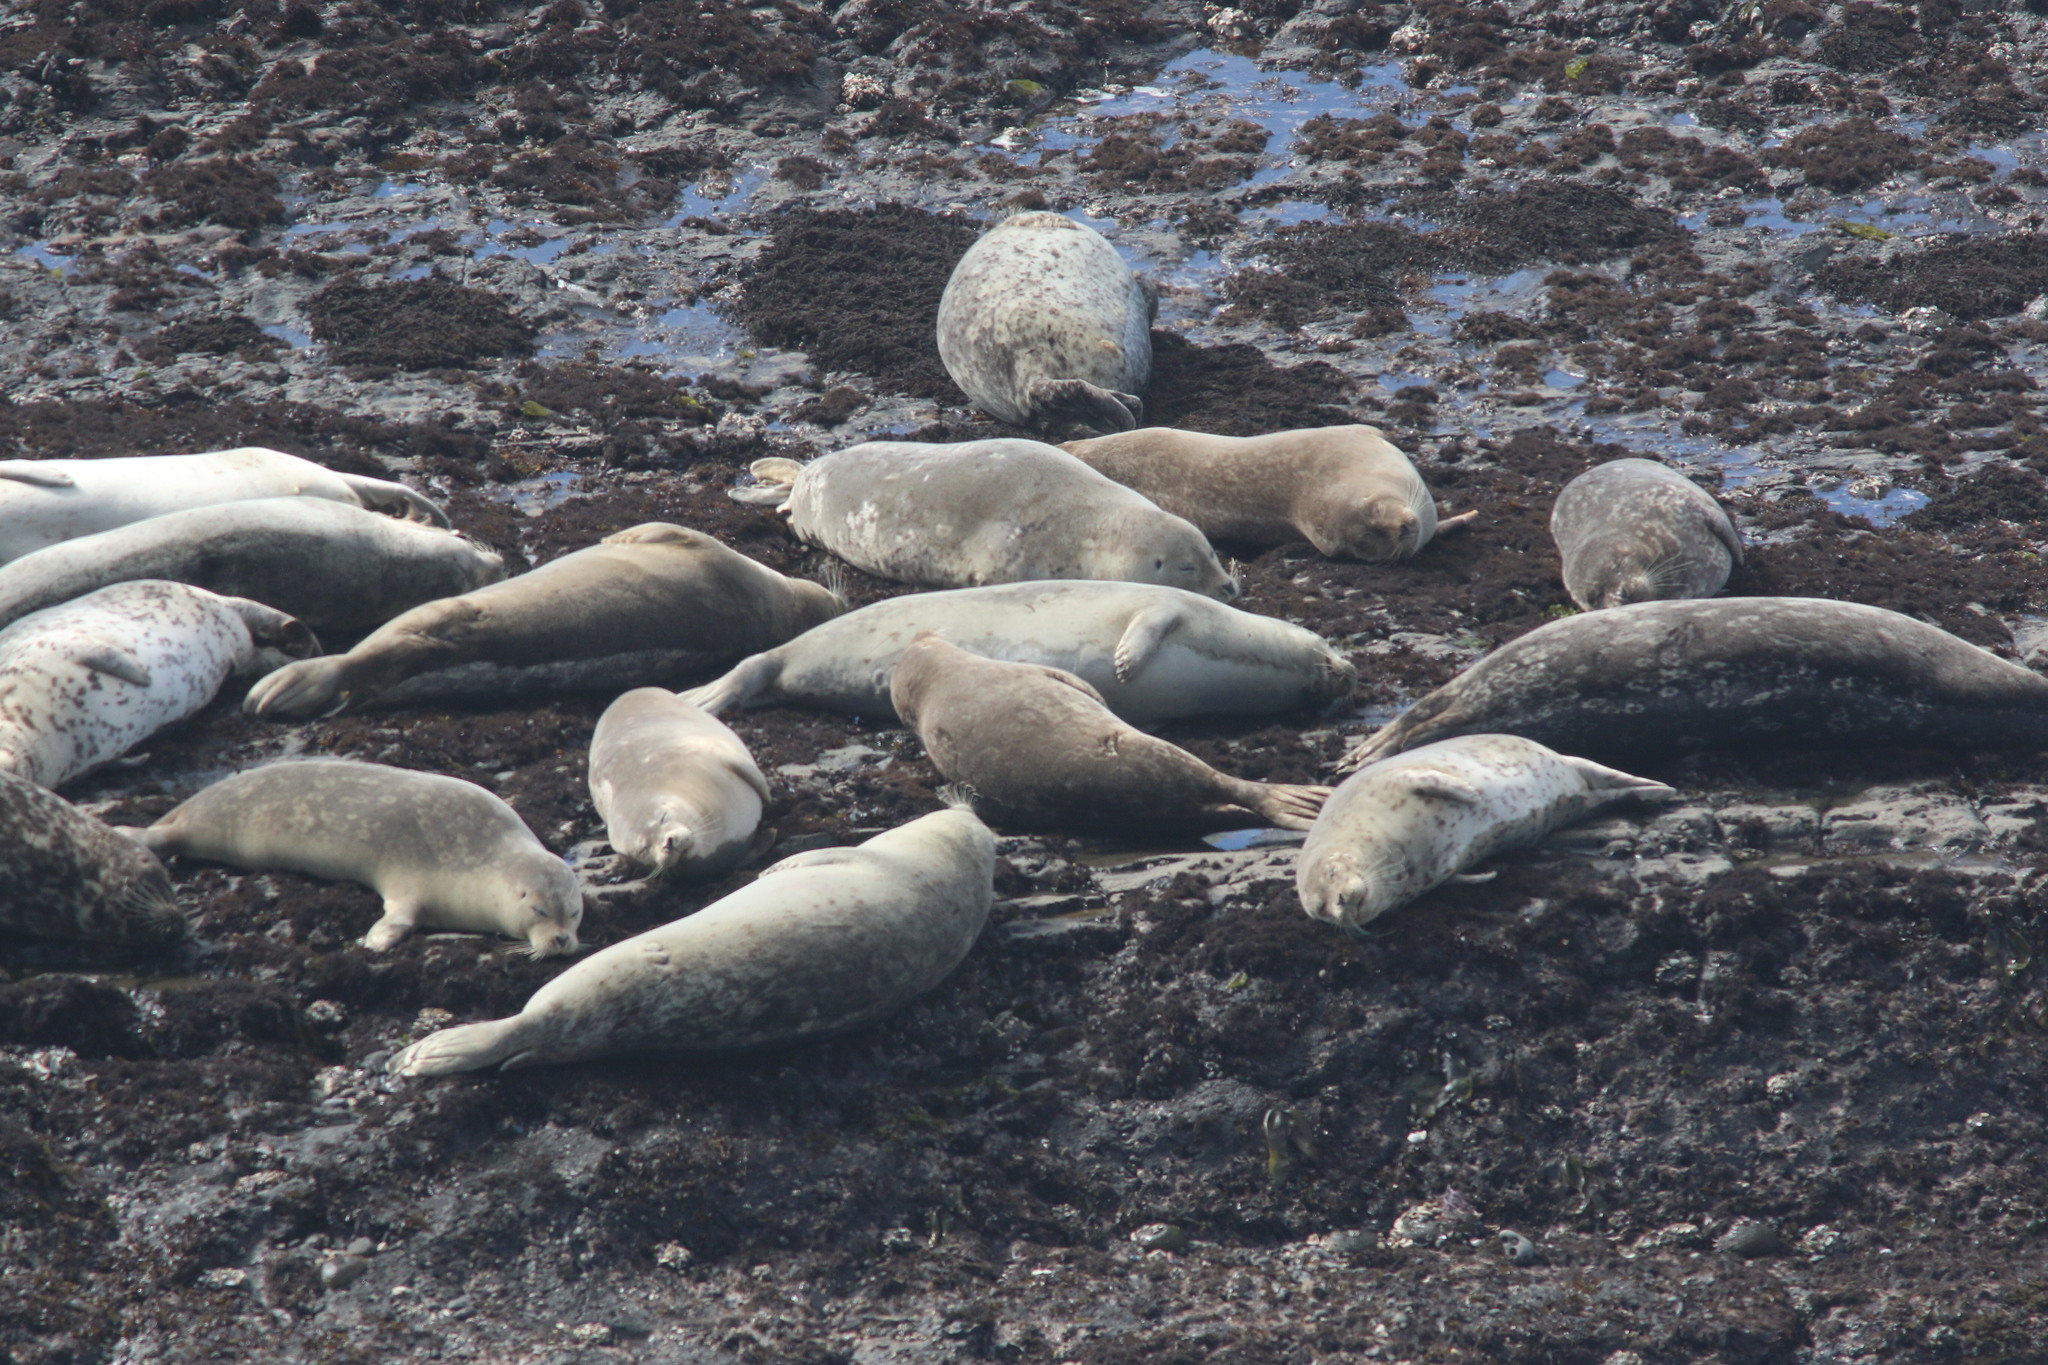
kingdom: Animalia
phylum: Chordata
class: Mammalia
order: Carnivora
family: Phocidae
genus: Phoca
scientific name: Phoca vitulina
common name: Harbor seal
